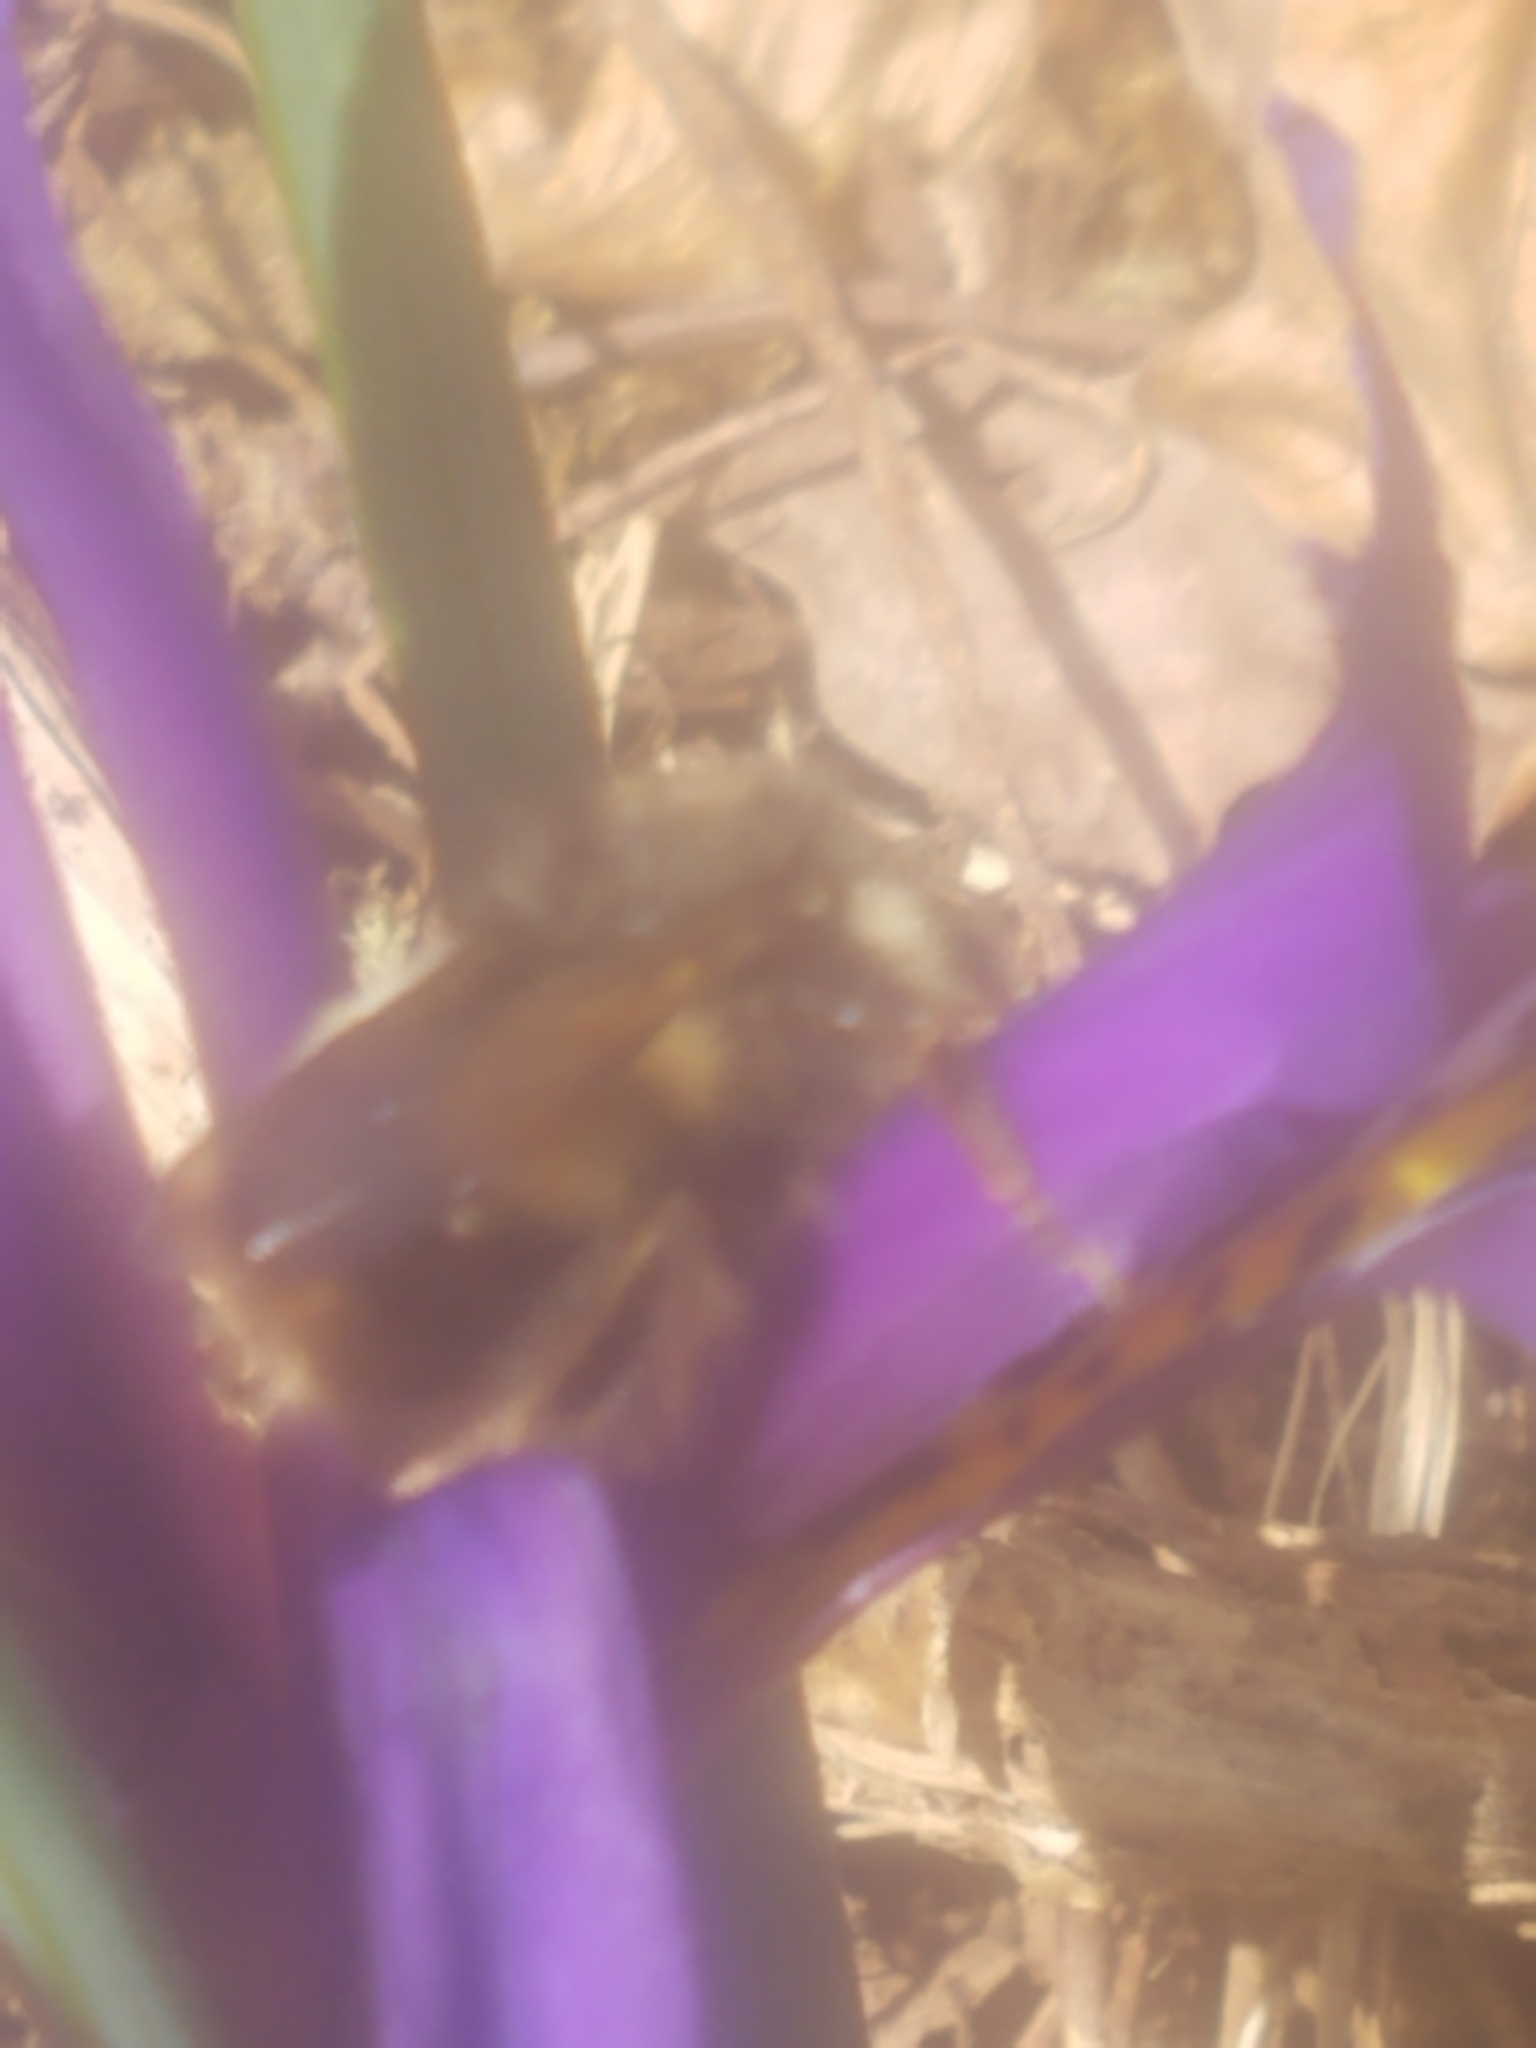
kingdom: Animalia
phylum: Arthropoda
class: Insecta
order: Hymenoptera
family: Apidae
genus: Pyrobombus
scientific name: Pyrobombus
